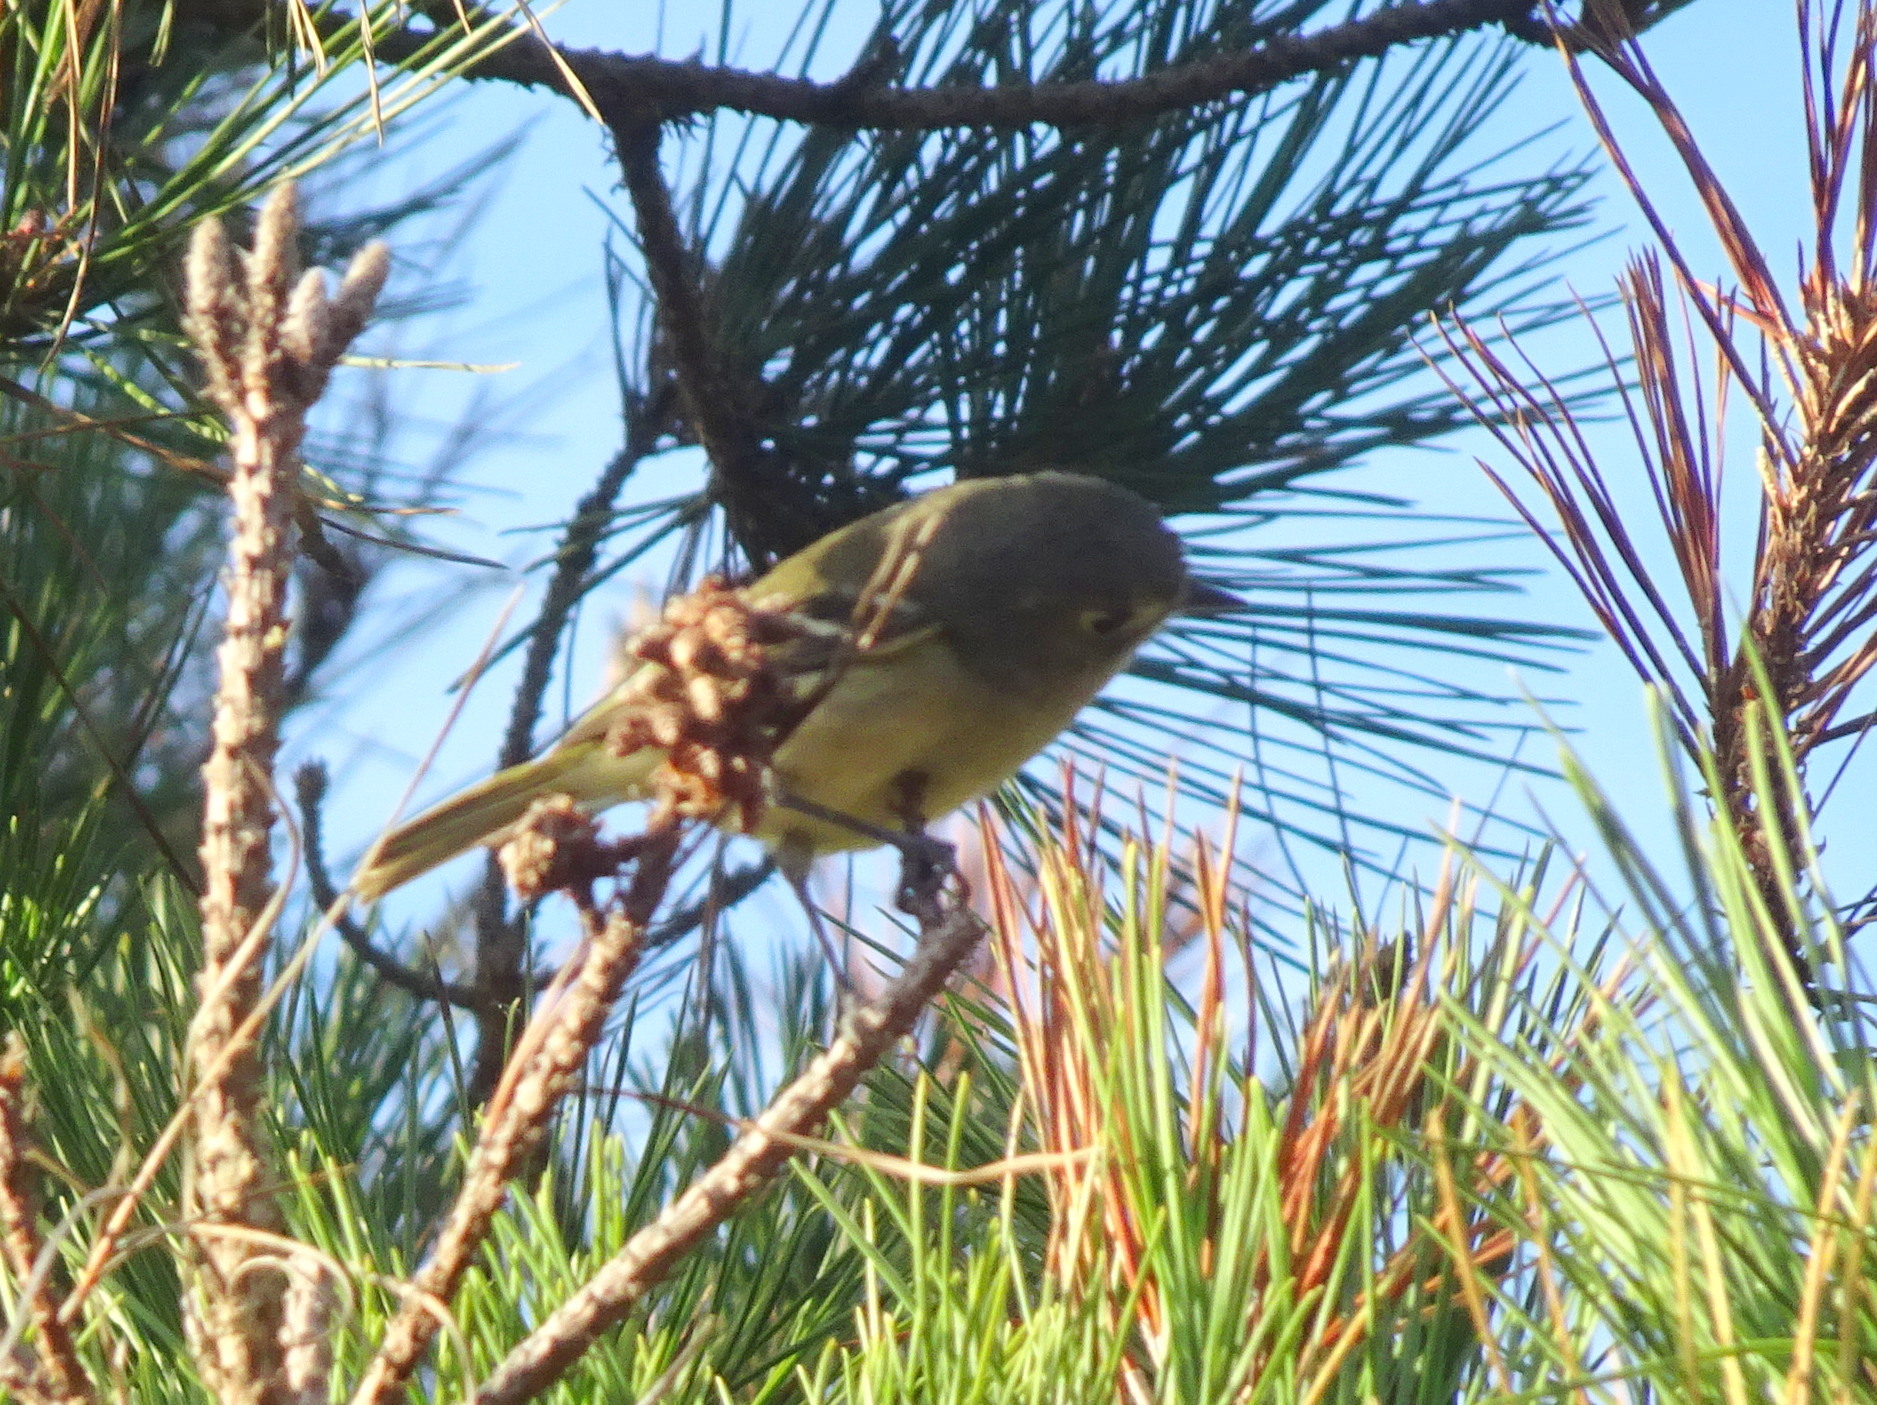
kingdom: Animalia
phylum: Chordata
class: Aves
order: Passeriformes
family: Vireonidae
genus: Vireo
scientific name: Vireo huttoni
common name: Hutton's vireo
